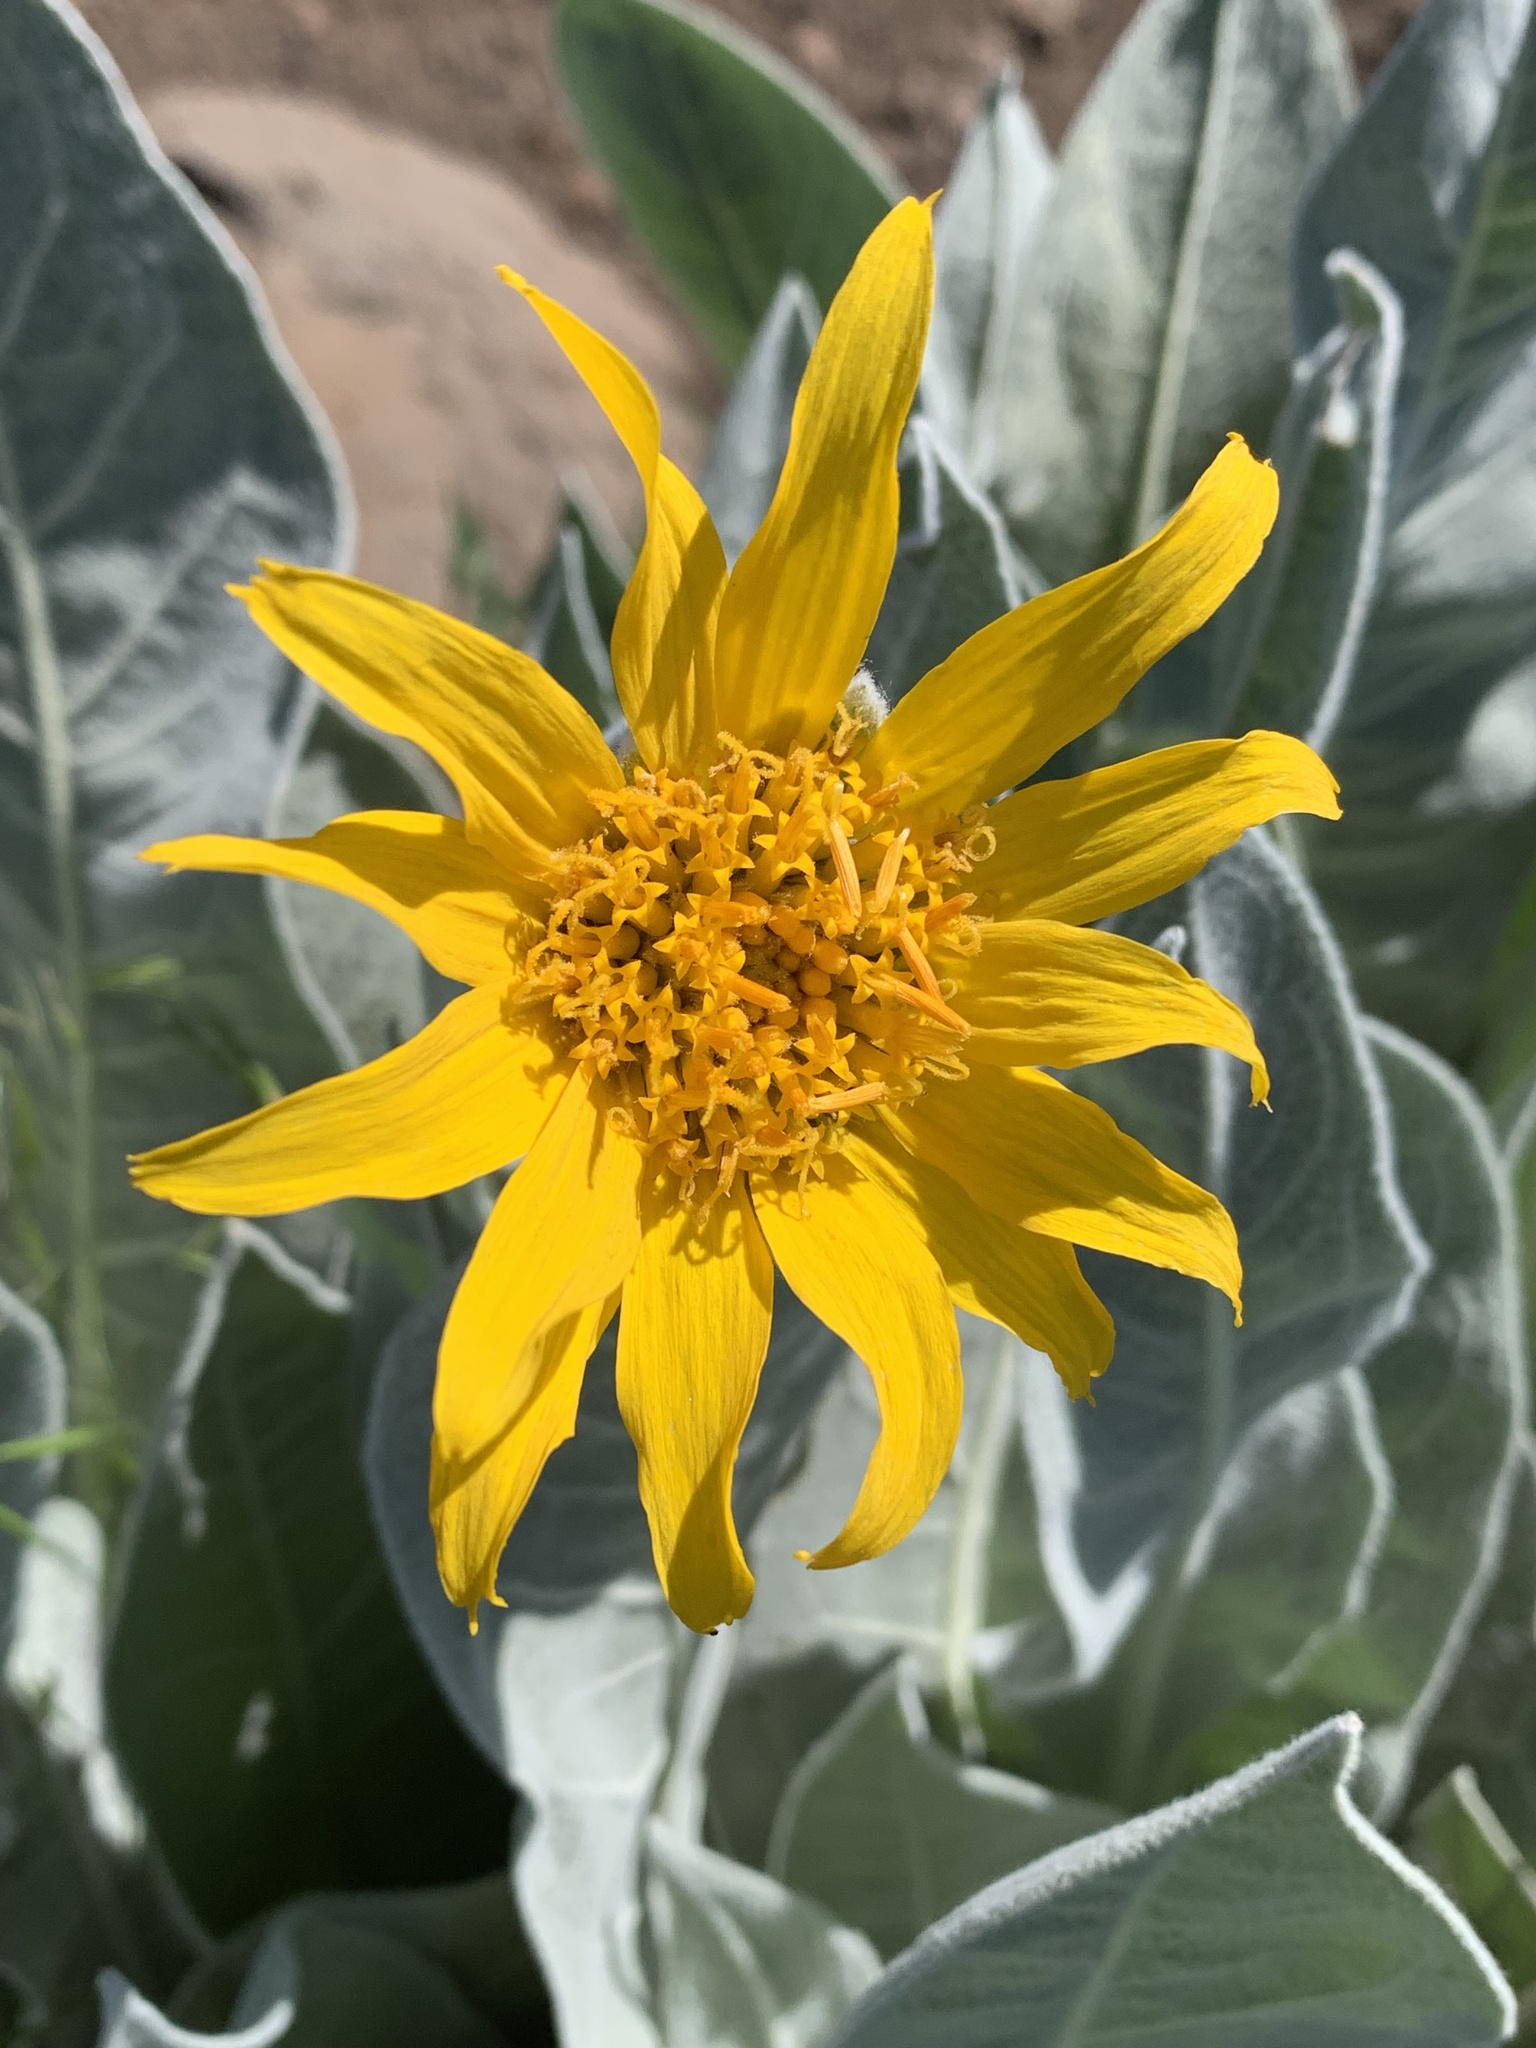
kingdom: Plantae
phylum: Tracheophyta
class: Magnoliopsida
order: Asterales
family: Asteraceae
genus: Wyethia
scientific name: Wyethia mollis
